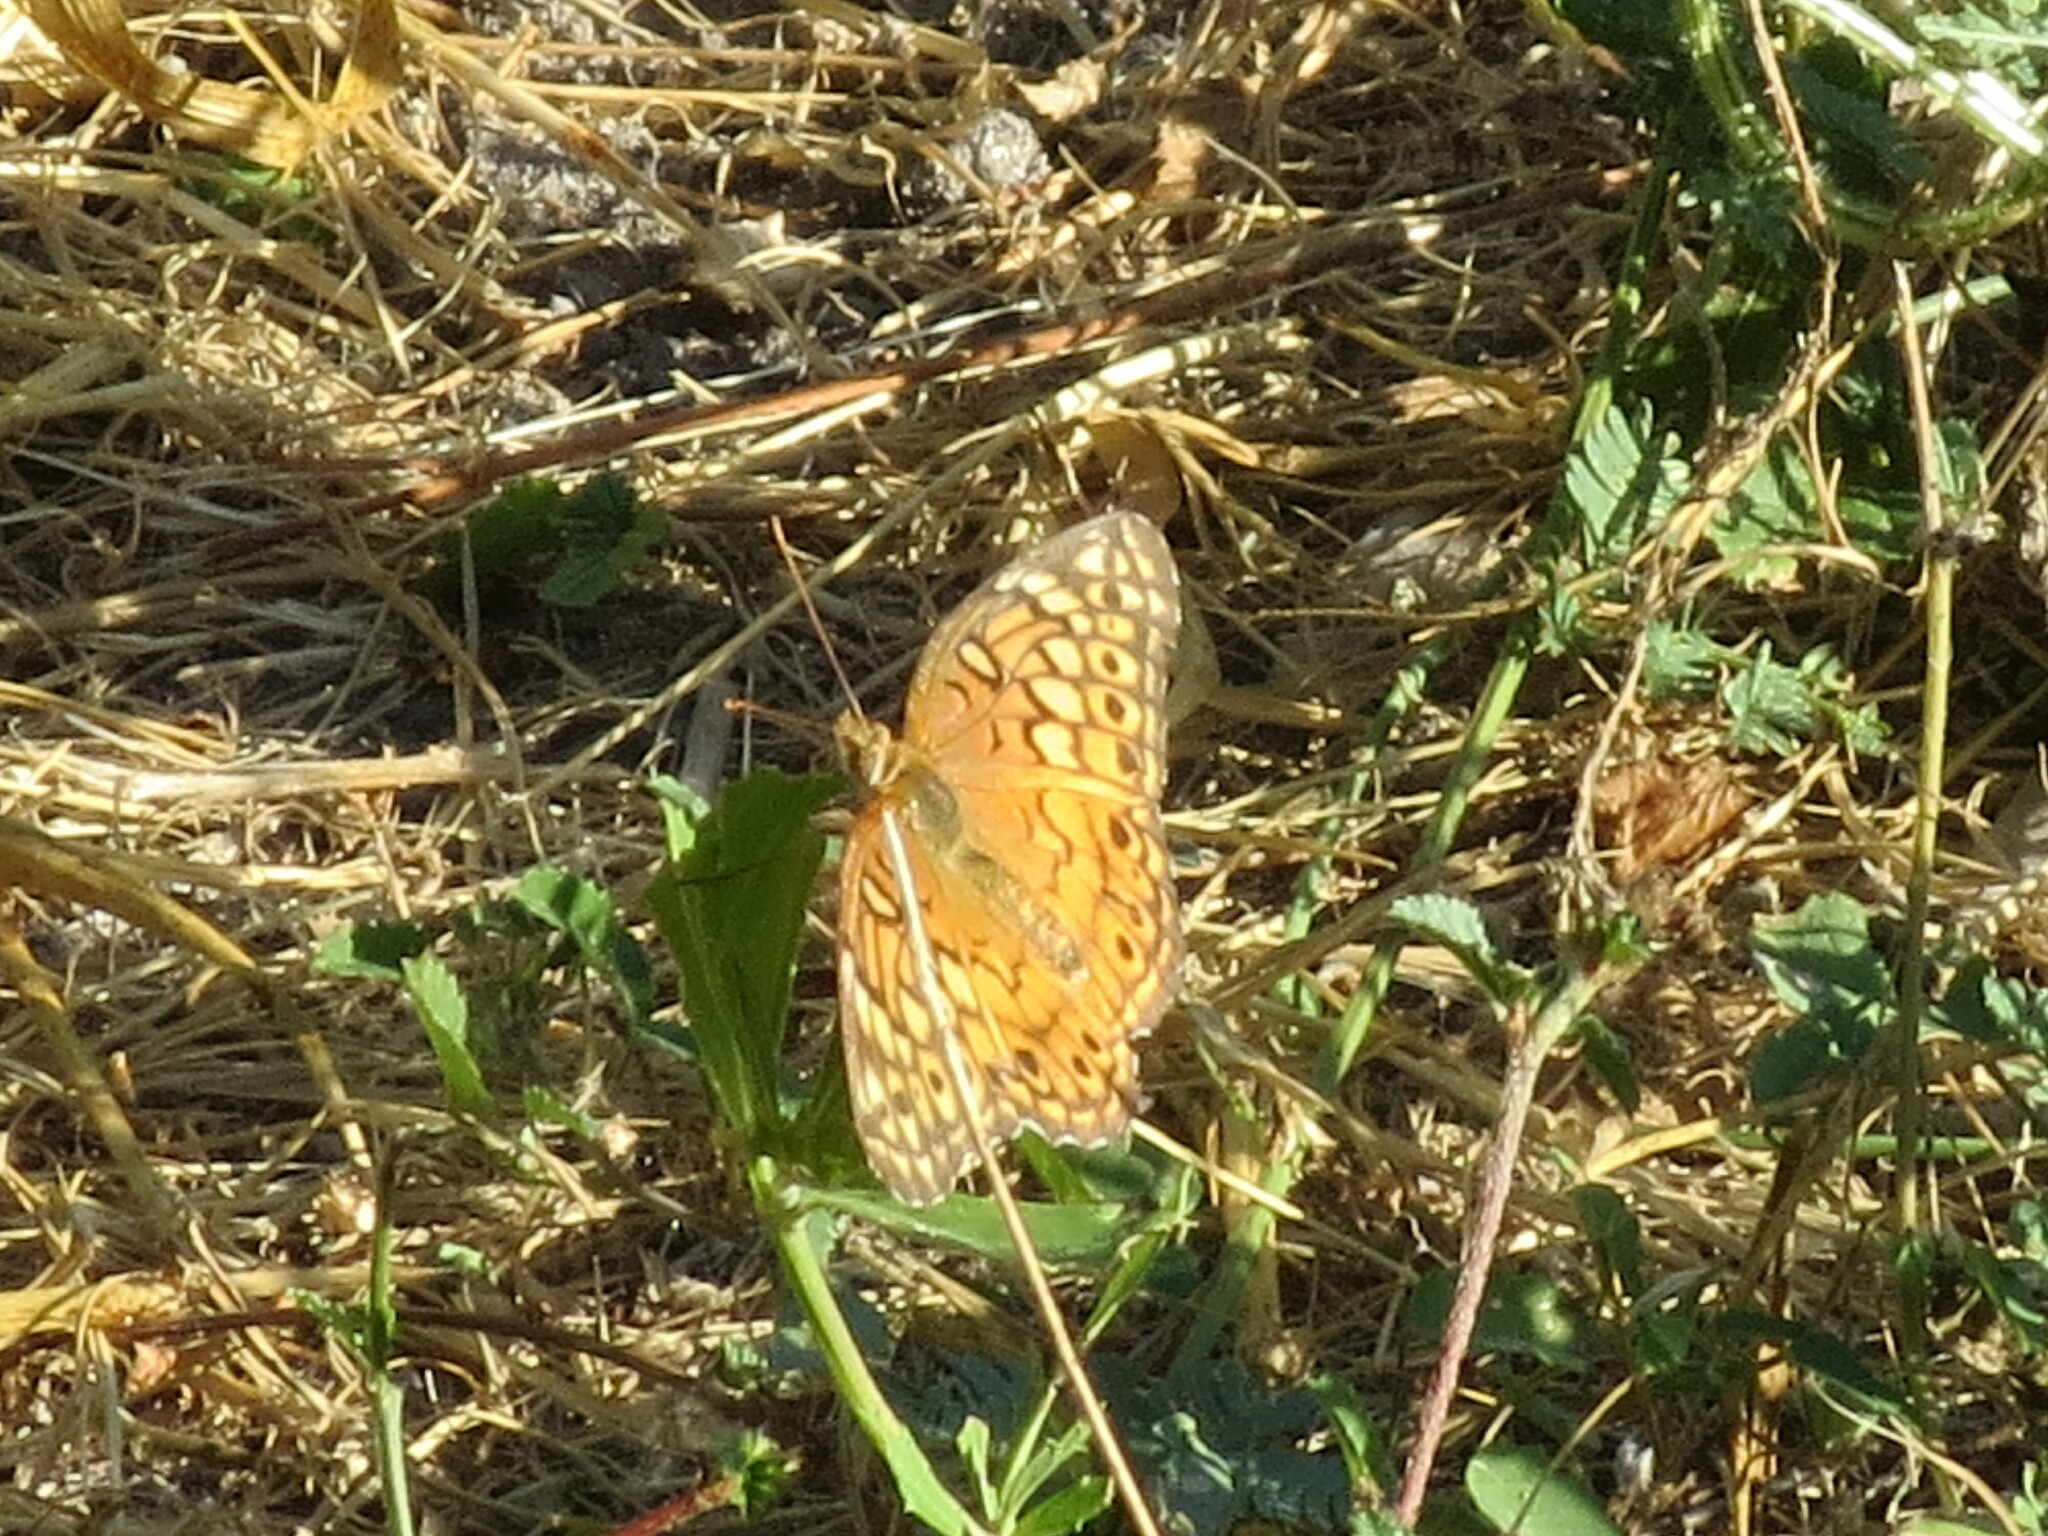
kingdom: Animalia
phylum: Arthropoda
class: Insecta
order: Lepidoptera
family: Nymphalidae
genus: Euptoieta
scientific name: Euptoieta claudia
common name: Variegated fritillary
